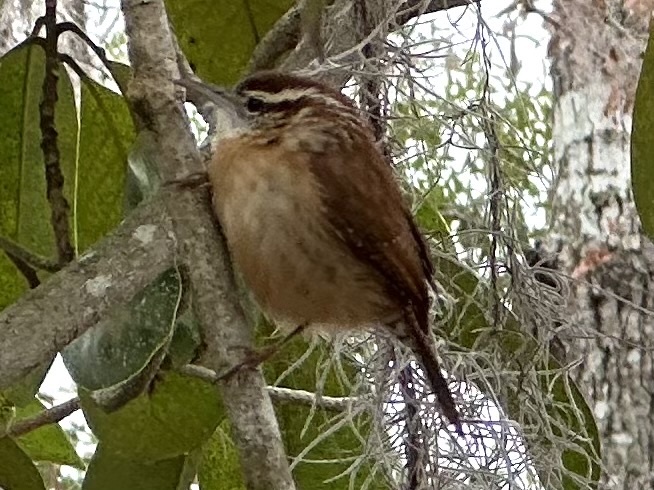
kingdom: Animalia
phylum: Chordata
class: Aves
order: Passeriformes
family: Troglodytidae
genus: Thryothorus
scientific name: Thryothorus ludovicianus
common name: Carolina wren
